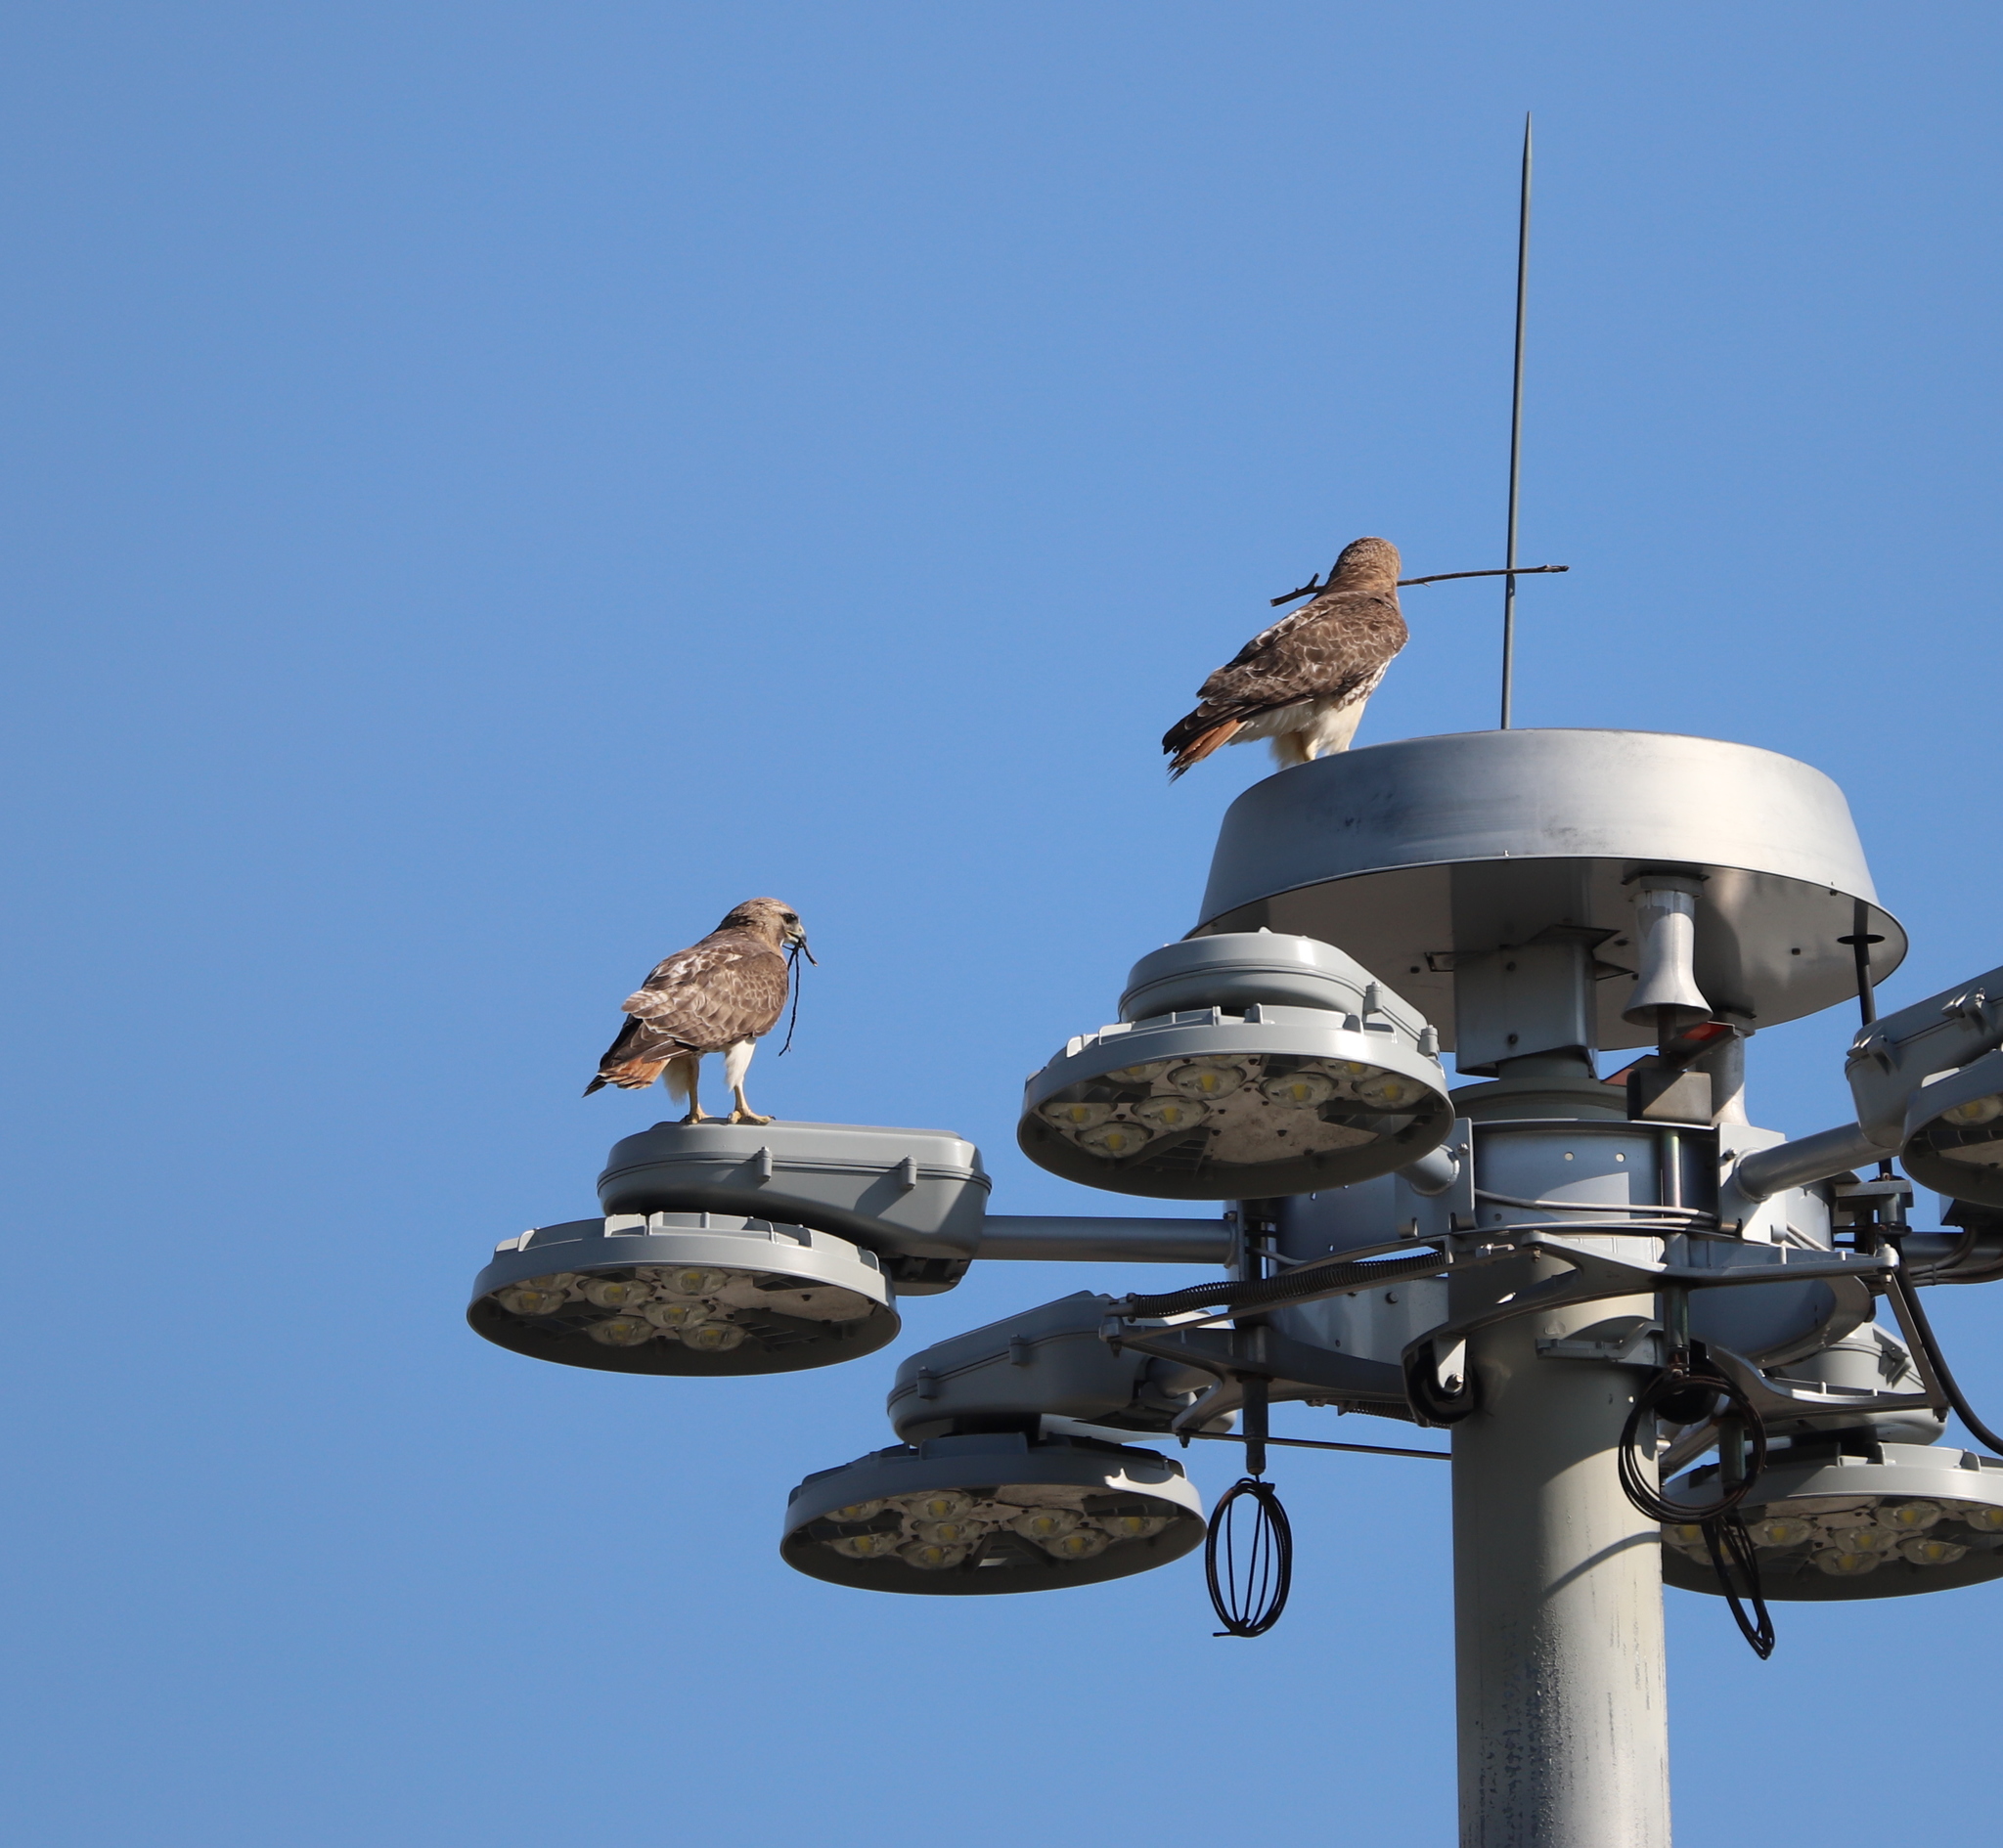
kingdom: Animalia
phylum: Chordata
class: Aves
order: Accipitriformes
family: Accipitridae
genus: Buteo
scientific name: Buteo jamaicensis
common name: Red-tailed hawk
